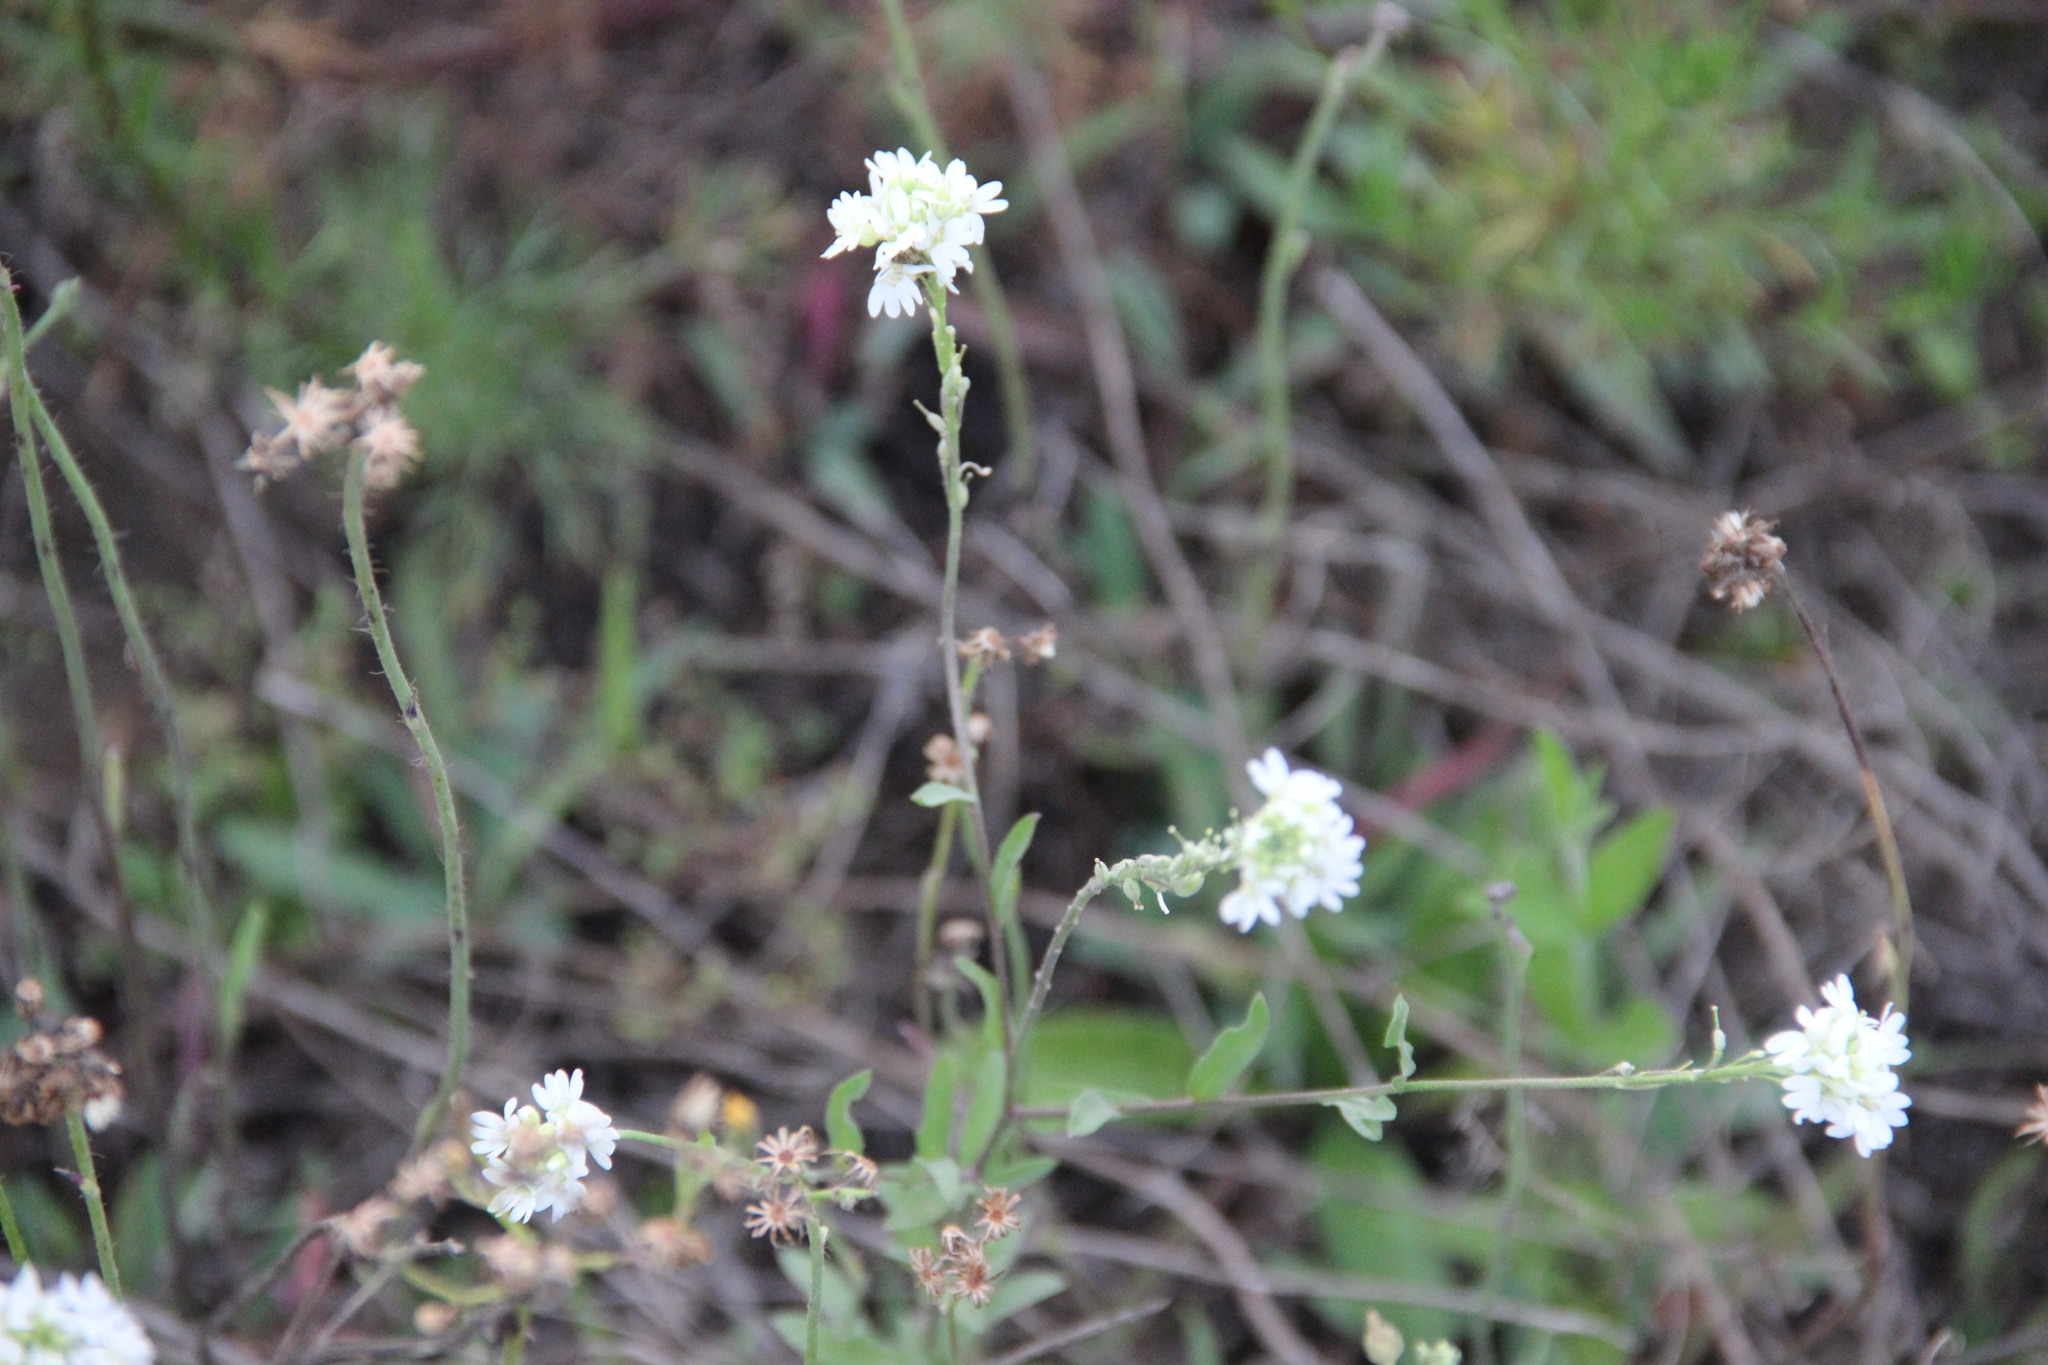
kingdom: Plantae
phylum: Tracheophyta
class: Magnoliopsida
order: Brassicales
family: Brassicaceae
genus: Berteroa
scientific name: Berteroa incana
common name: Hoary alison
